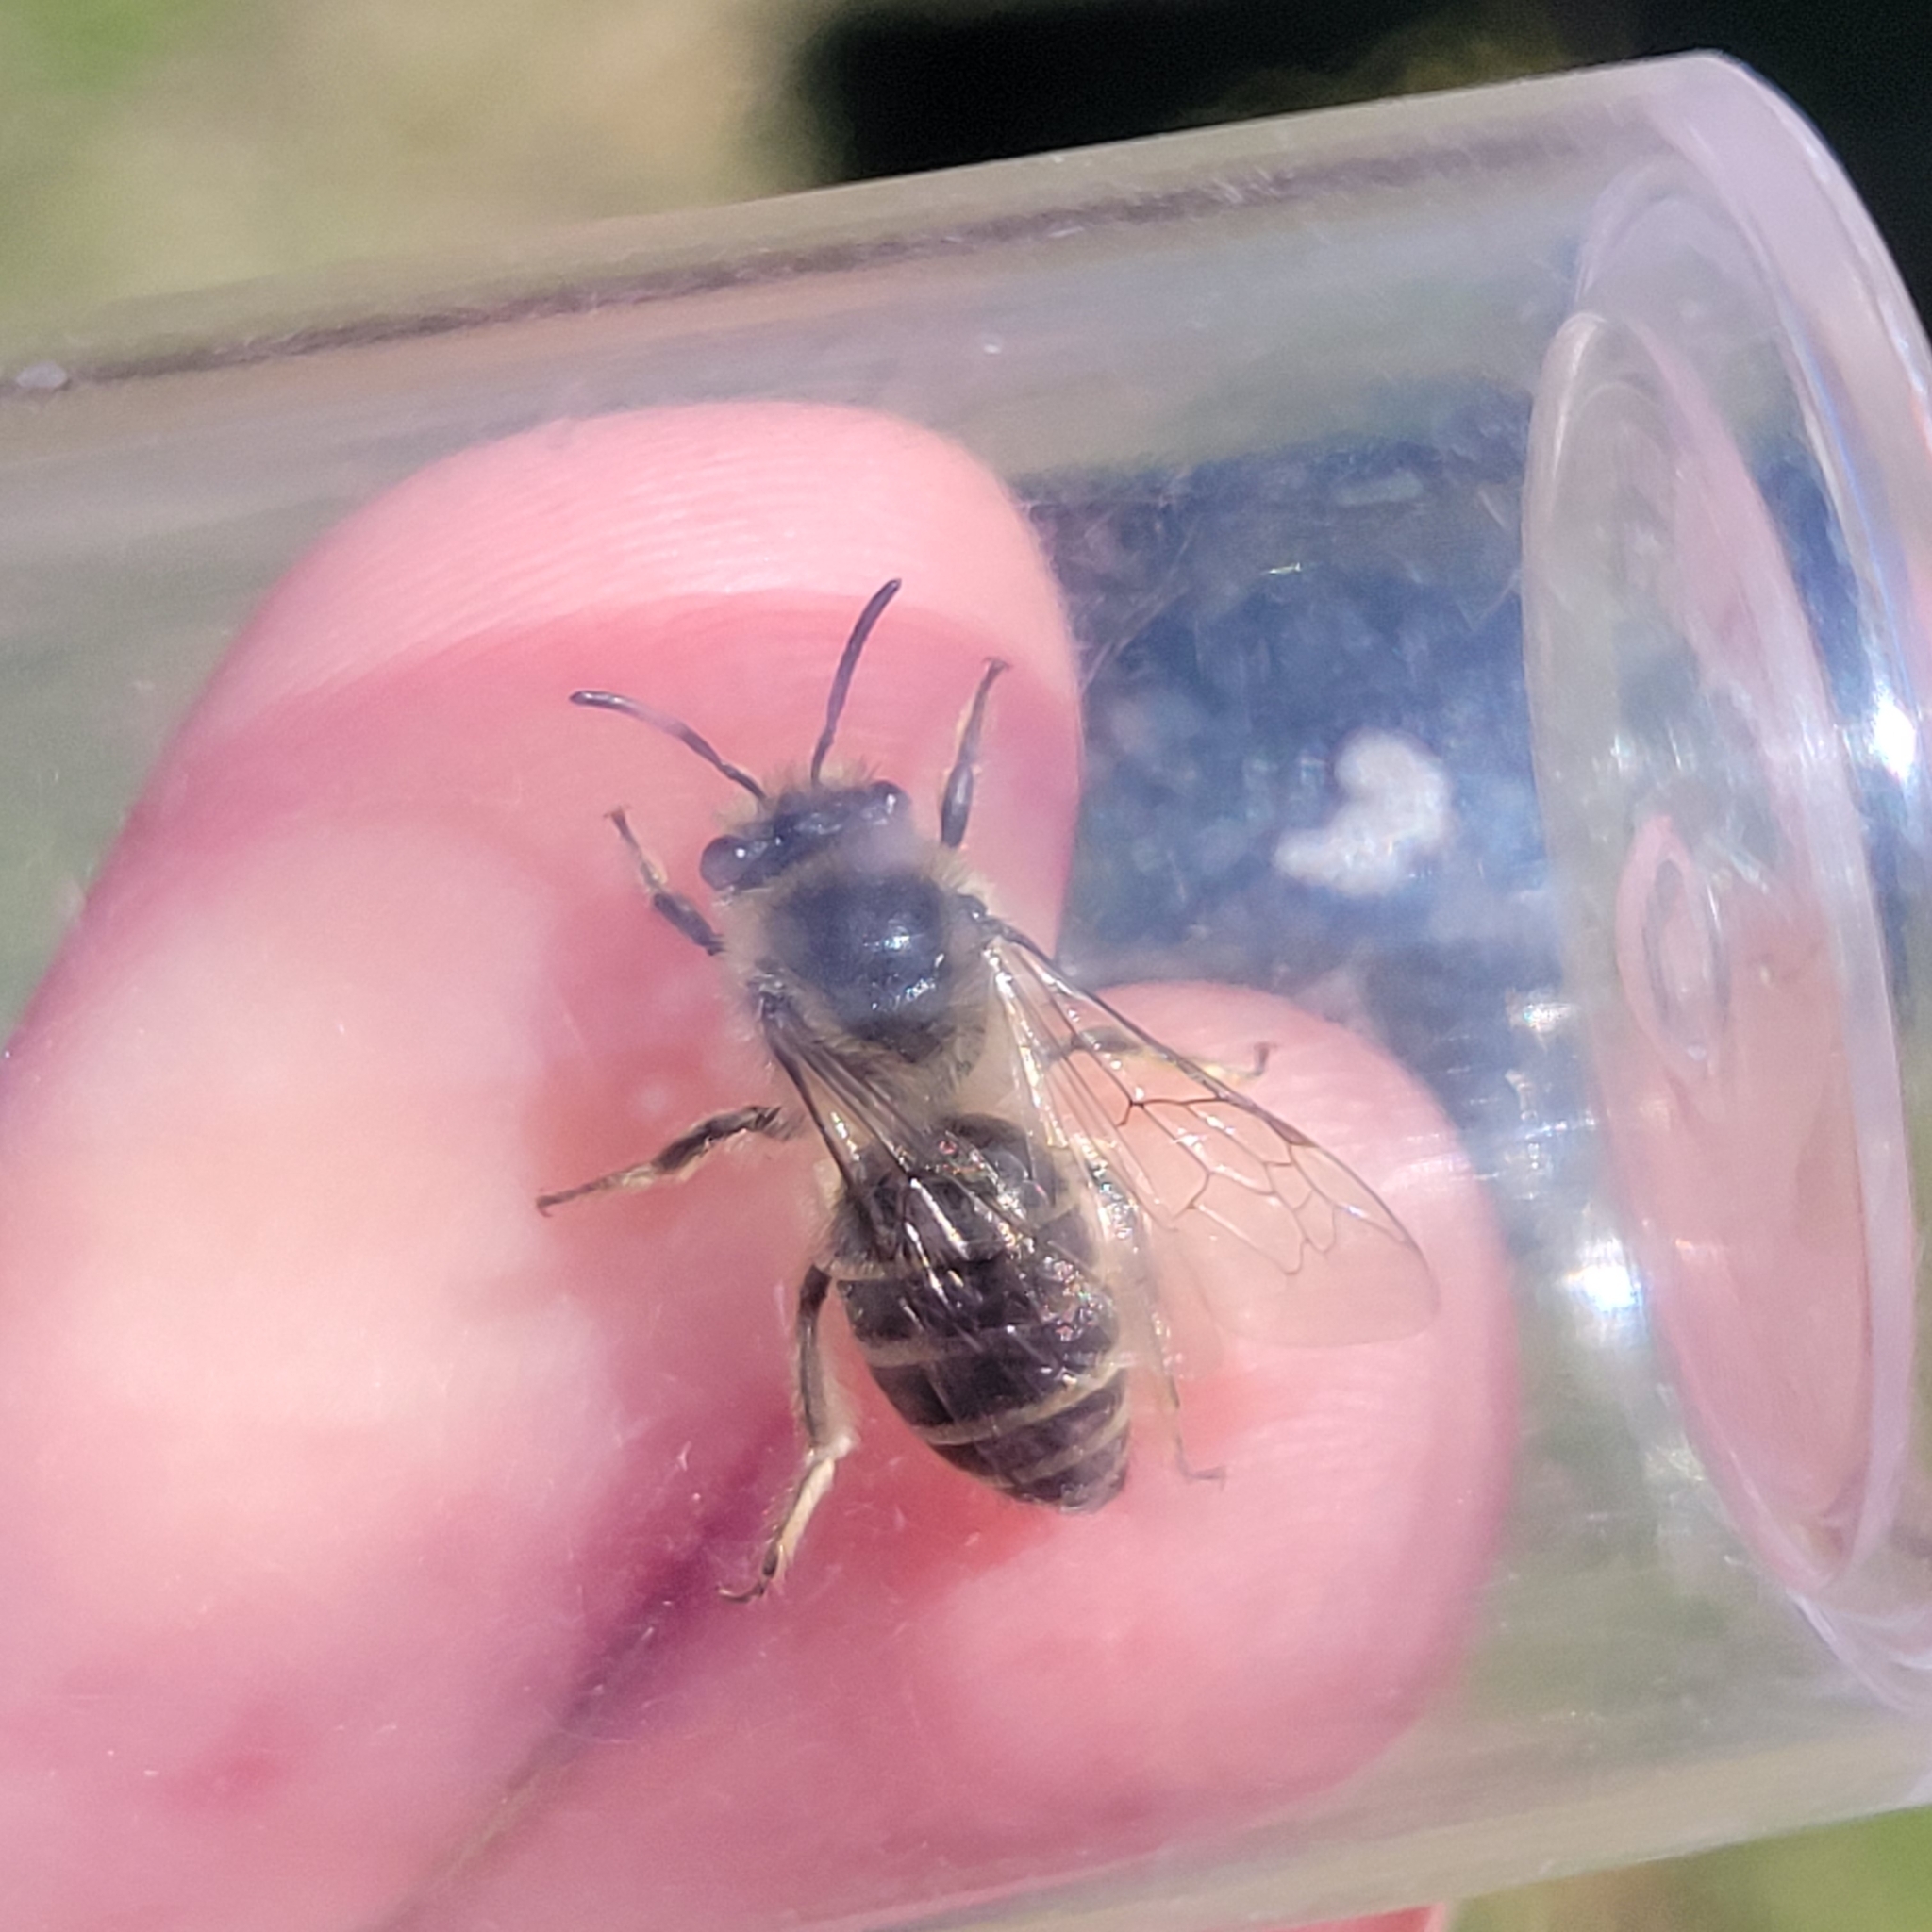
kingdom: Animalia
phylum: Arthropoda
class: Insecta
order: Hymenoptera
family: Colletidae
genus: Colletes
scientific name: Colletes inaequalis
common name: Unequal cellophane bee
